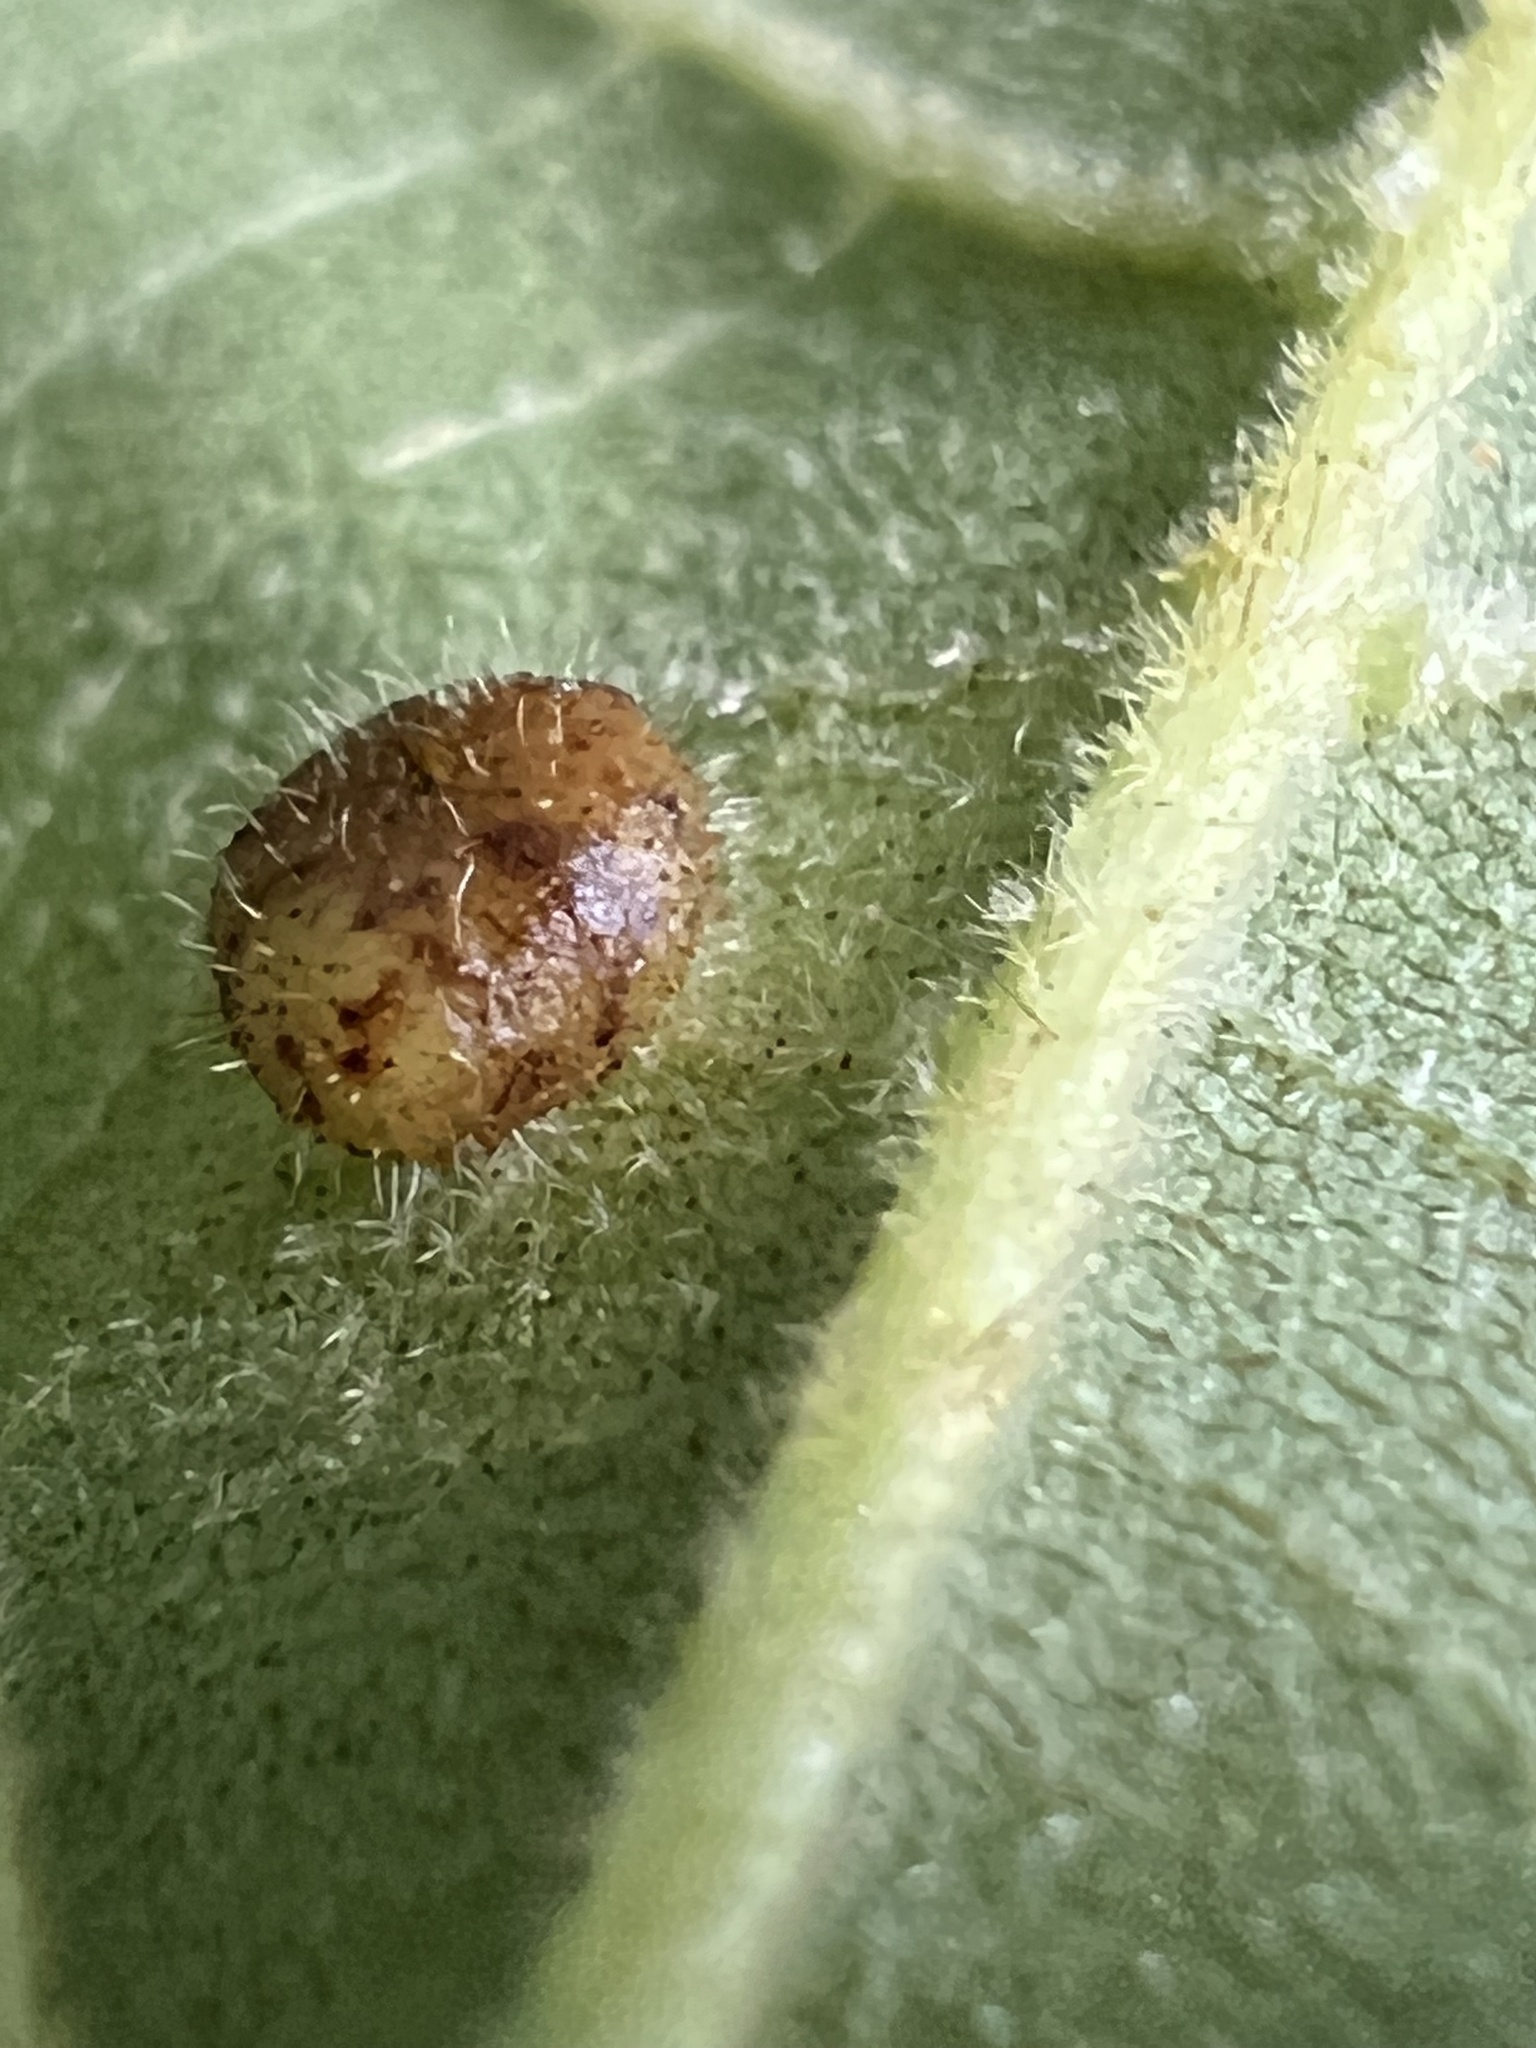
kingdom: Animalia
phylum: Arthropoda
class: Insecta
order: Diptera
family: Cecidomyiidae
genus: Caryomyia
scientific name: Caryomyia thompsoni
